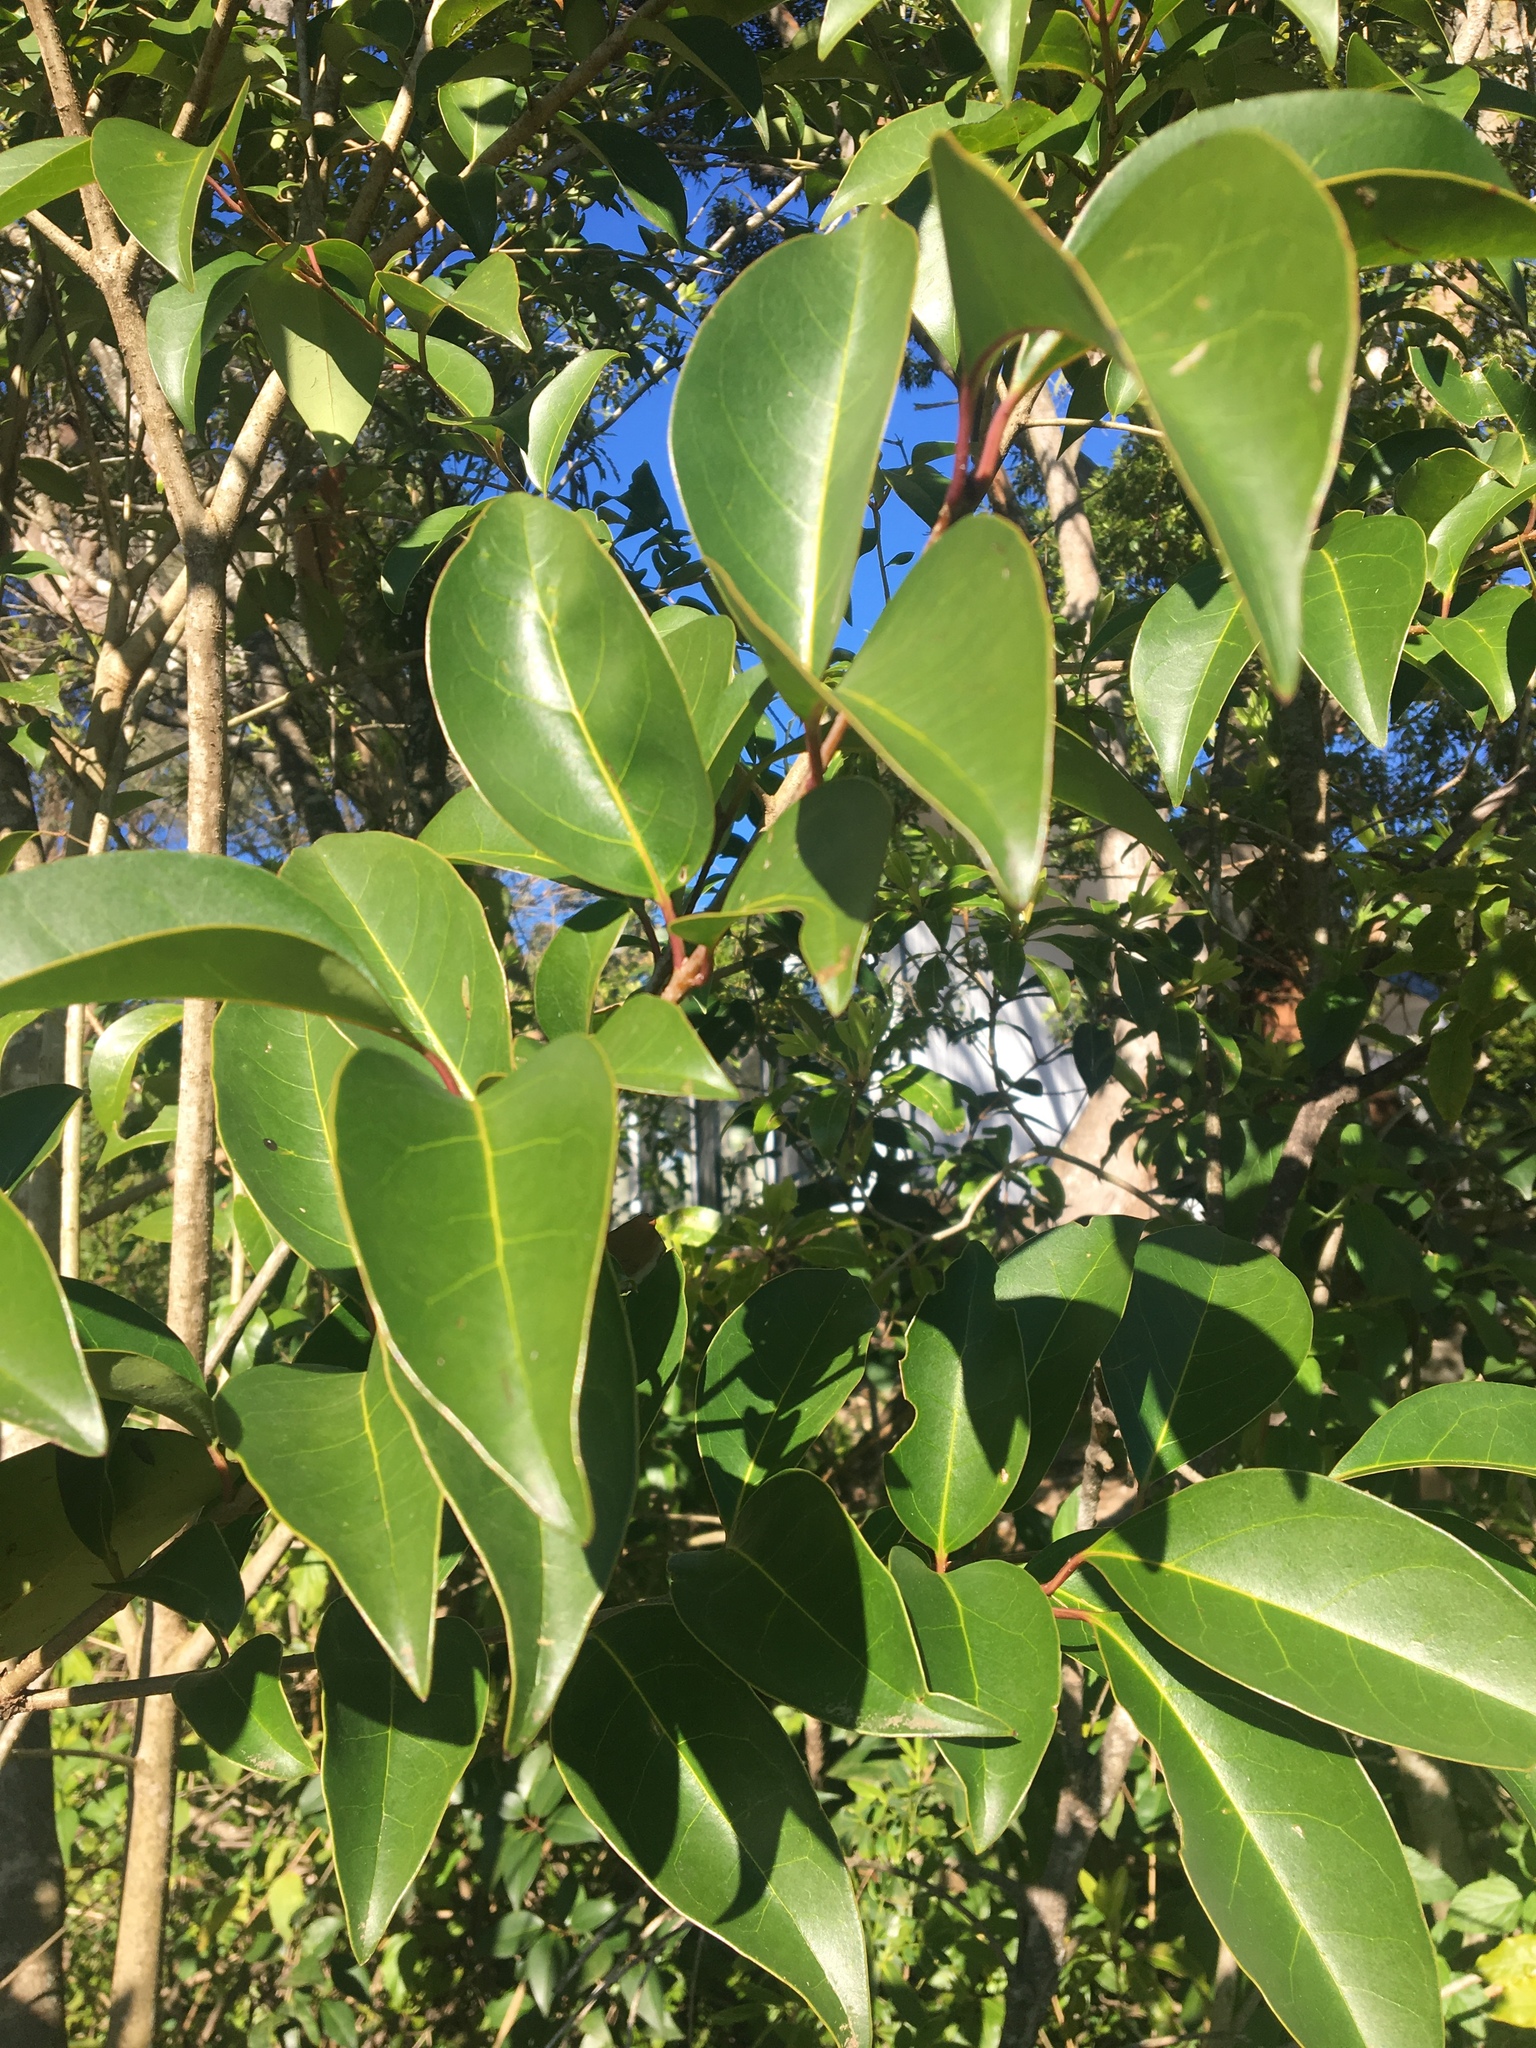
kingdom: Plantae
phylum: Tracheophyta
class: Magnoliopsida
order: Lamiales
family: Oleaceae
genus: Ligustrum
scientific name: Ligustrum lucidum
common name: Glossy privet
